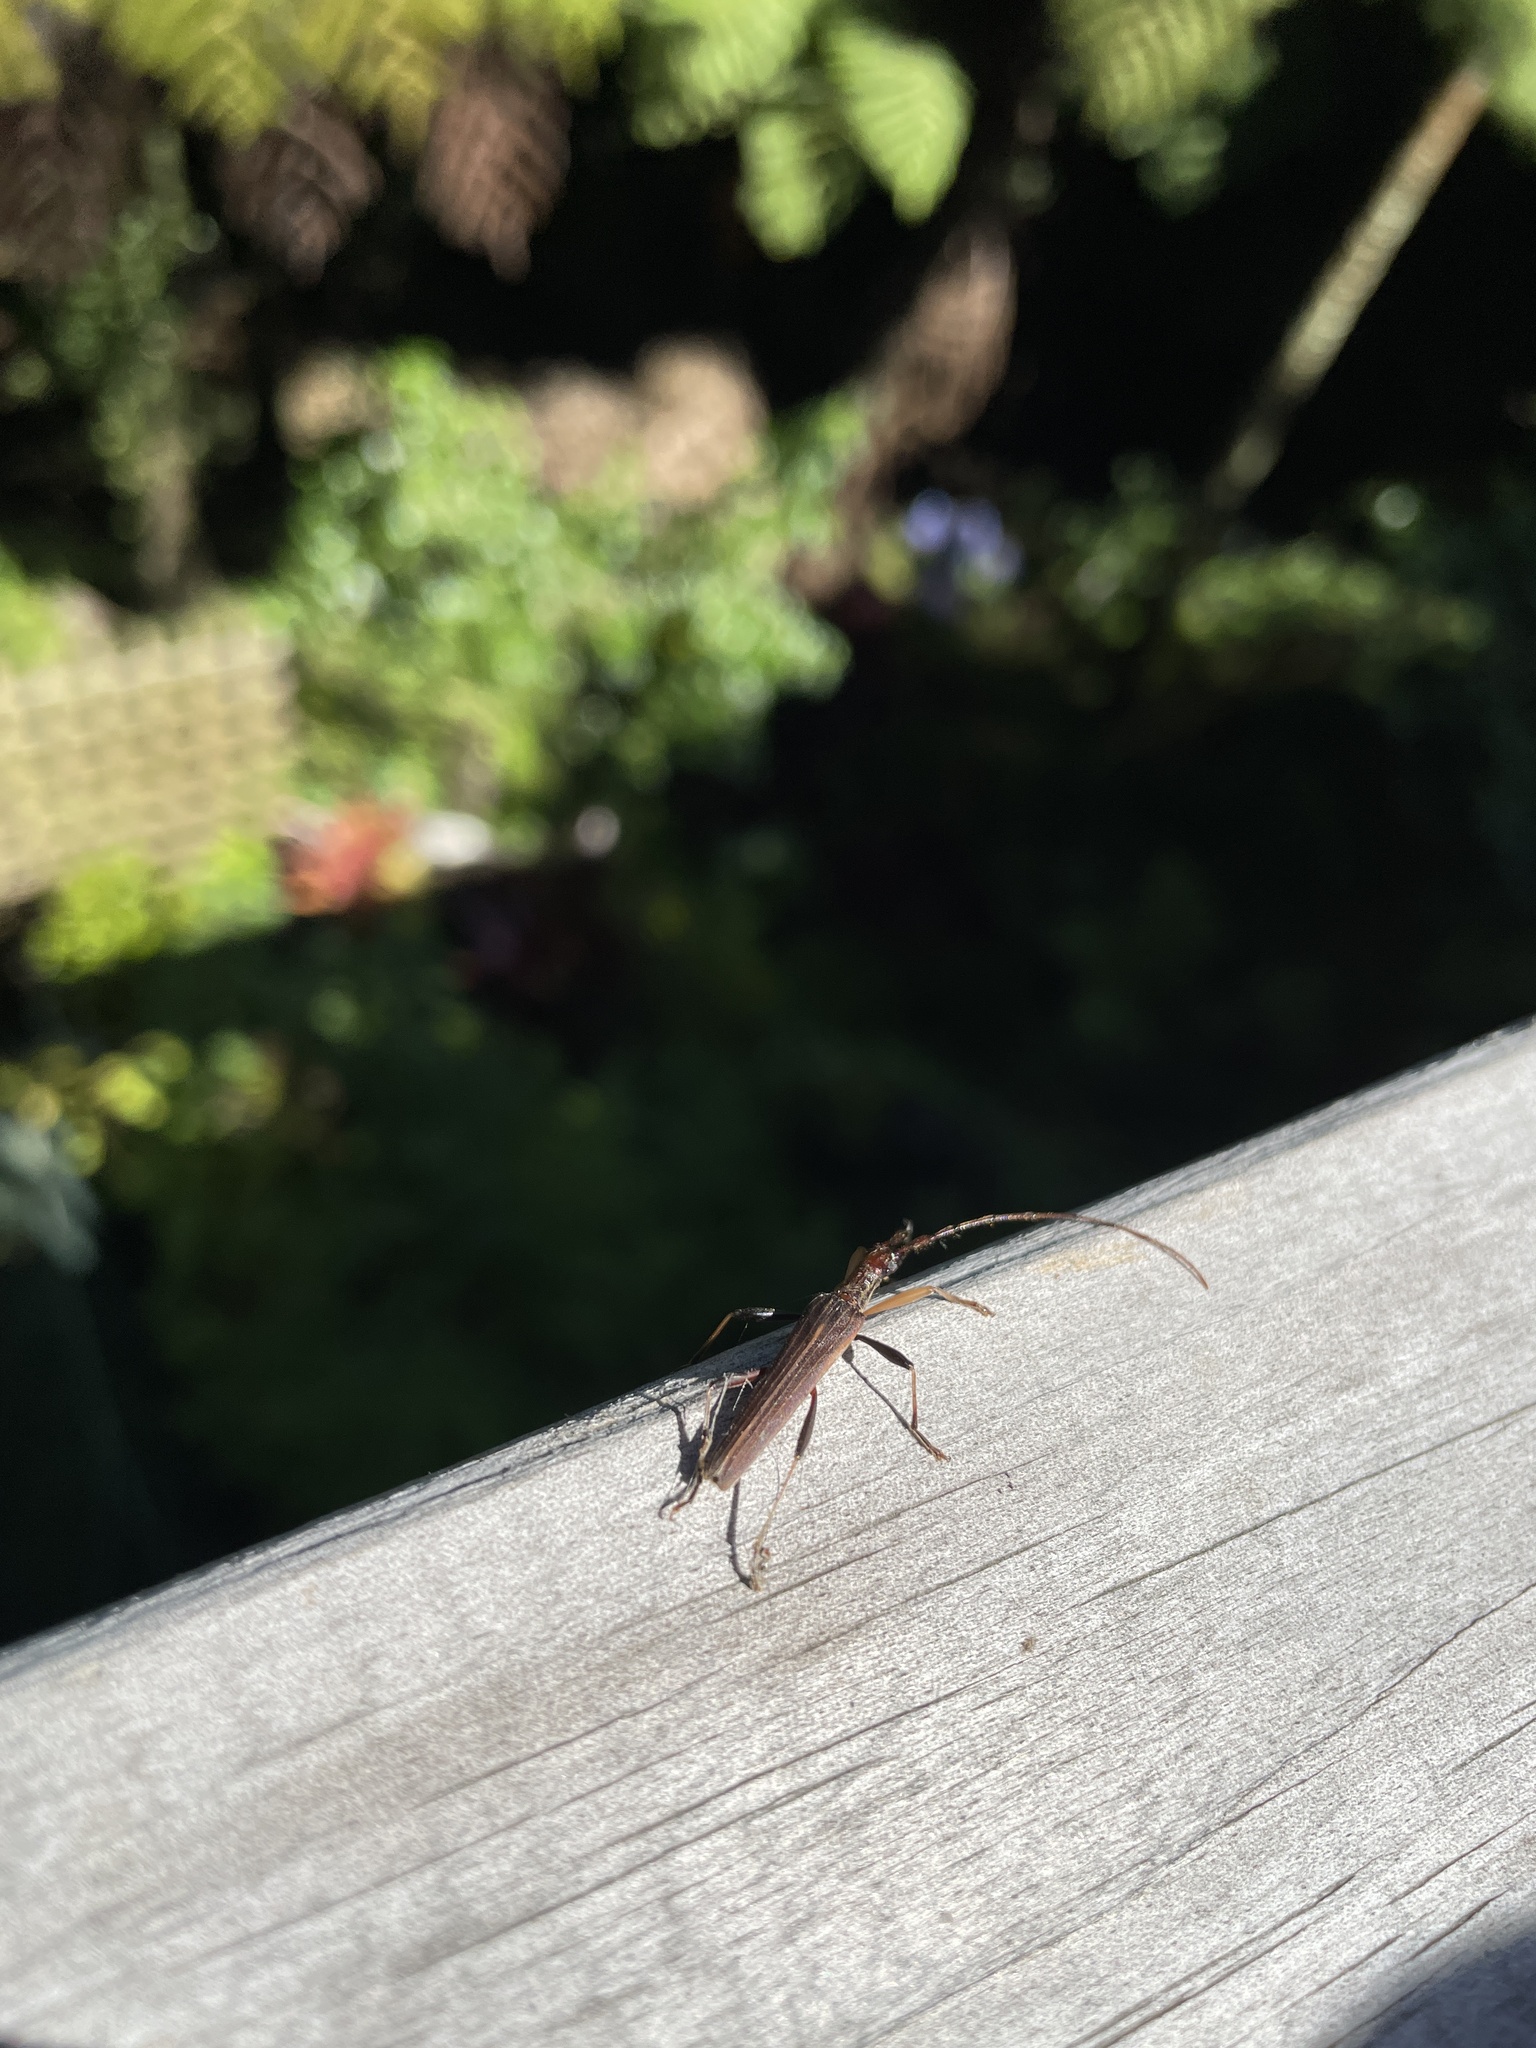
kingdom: Animalia
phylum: Arthropoda
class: Insecta
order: Coleoptera
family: Cerambycidae
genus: Stenopotes
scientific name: Stenopotes pallidus
